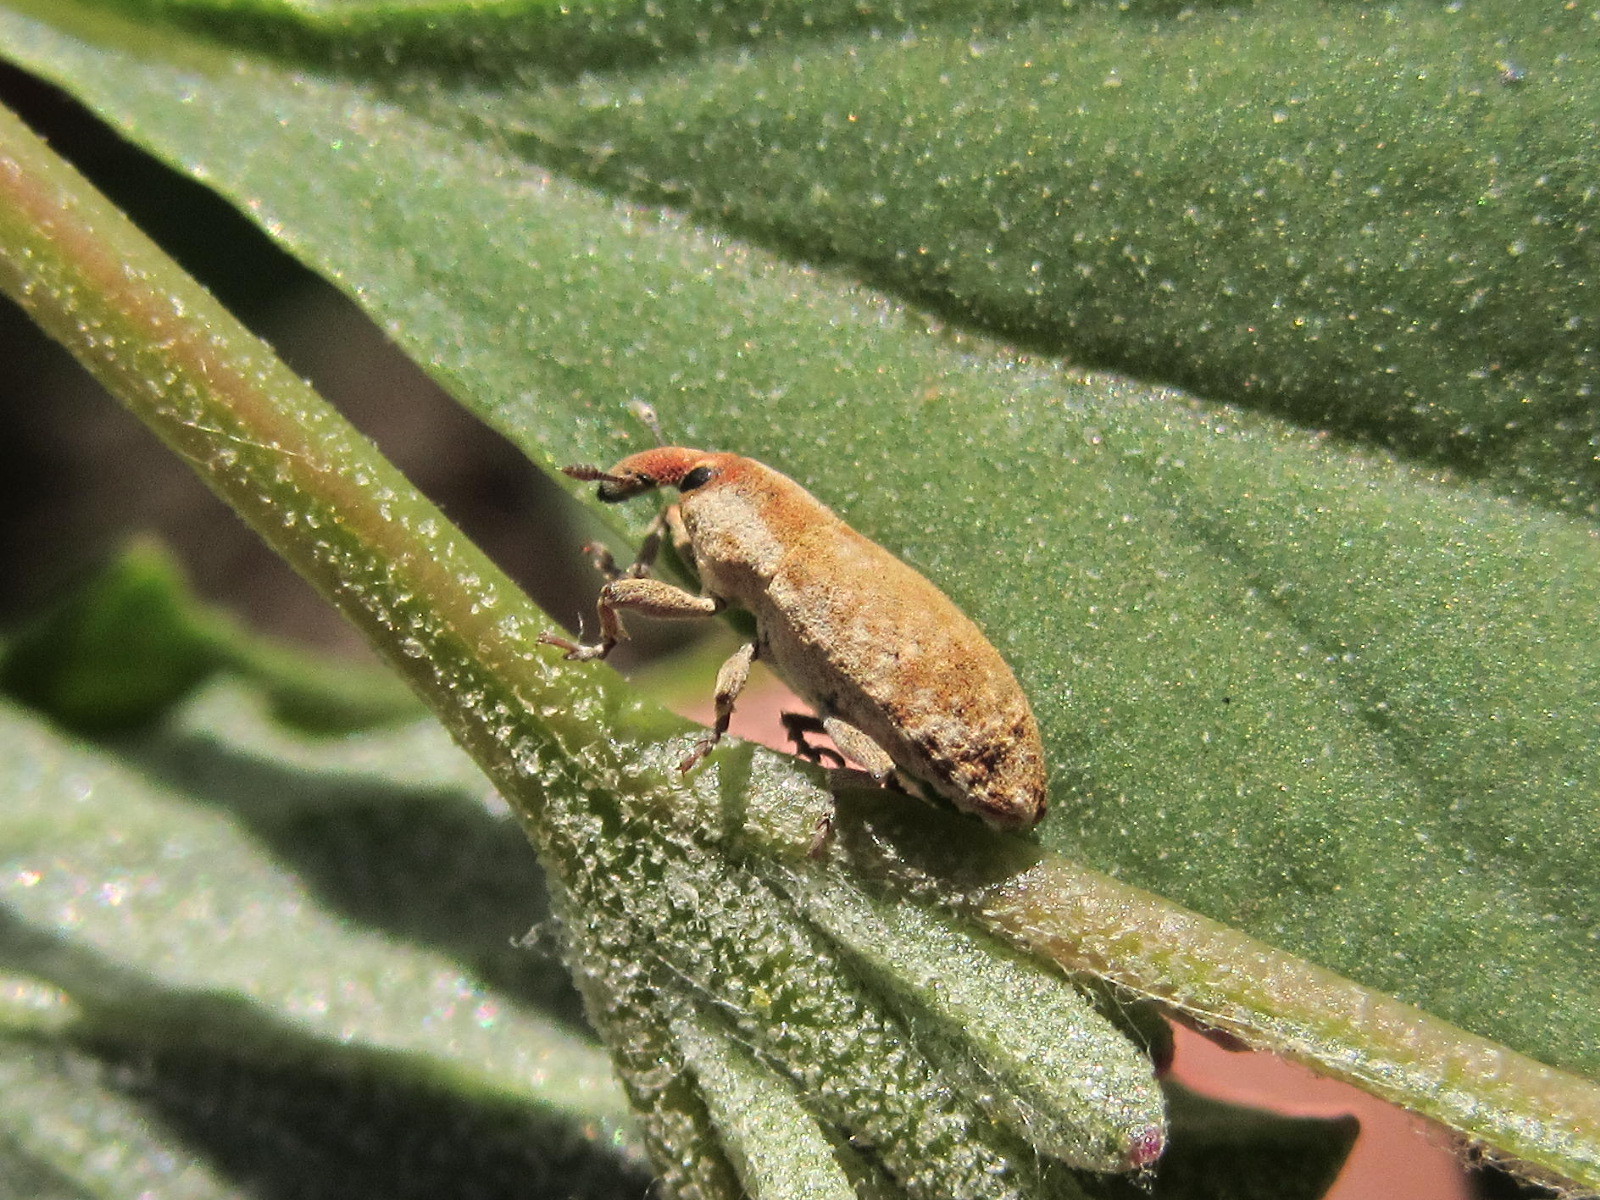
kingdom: Animalia
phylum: Arthropoda
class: Insecta
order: Coleoptera
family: Curculionidae
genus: Lixus
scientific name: Lixus kraatzii
